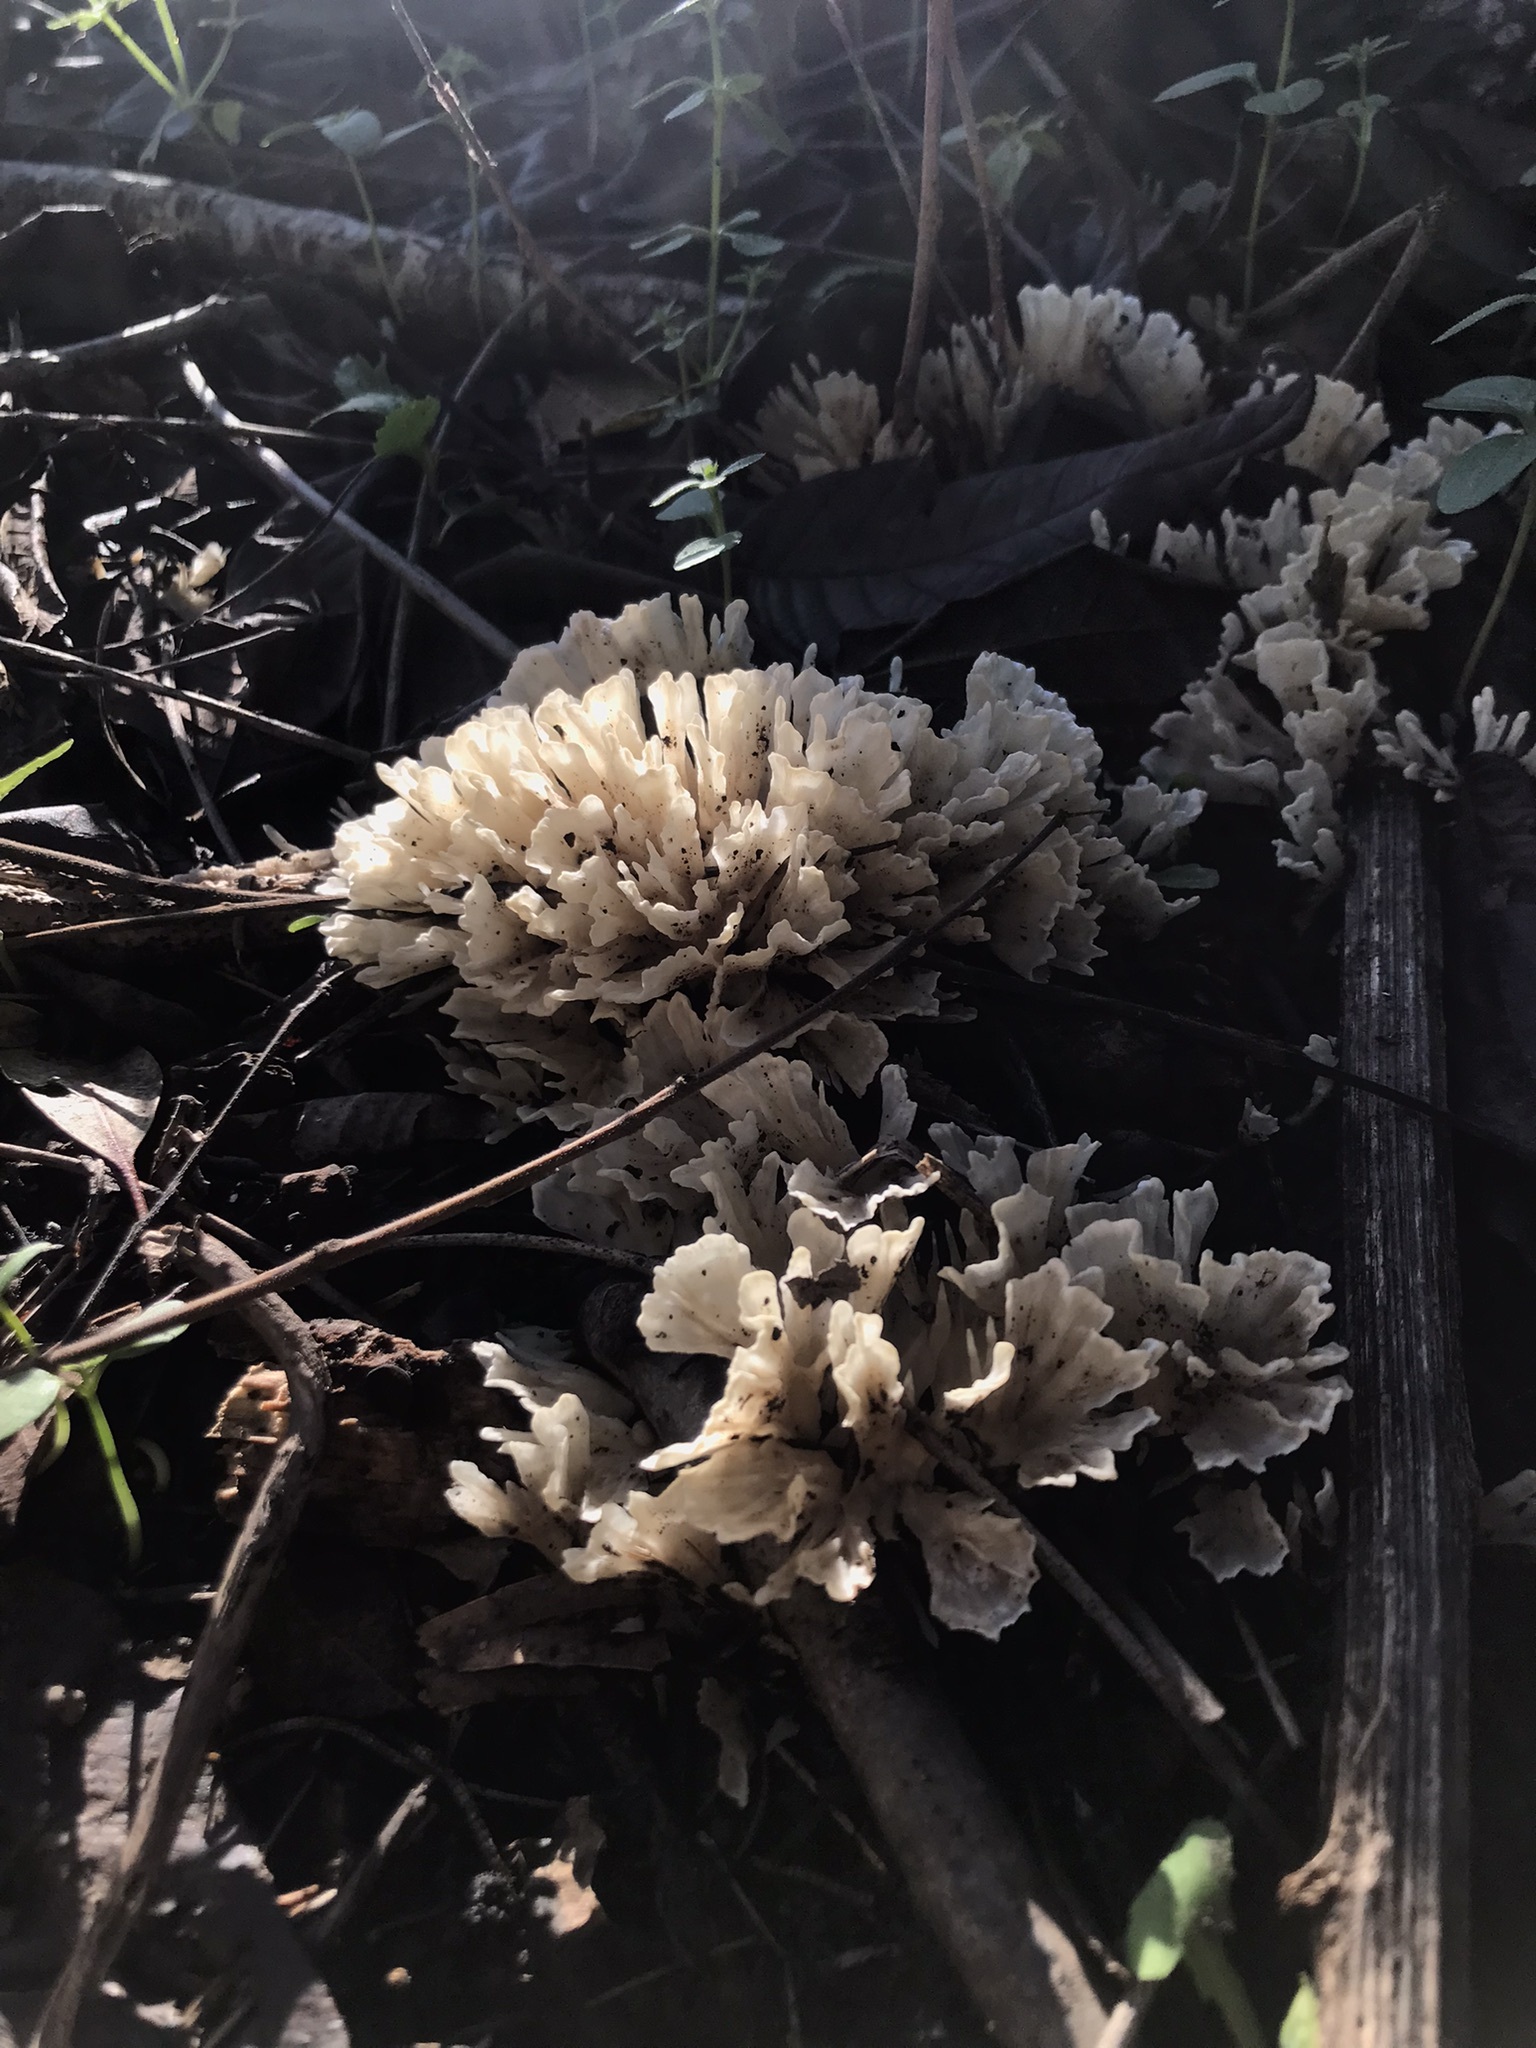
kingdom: Fungi
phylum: Basidiomycota
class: Agaricomycetes
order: Polyporales
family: Irpicaceae
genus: Irpex
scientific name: Irpex rosettiformis
